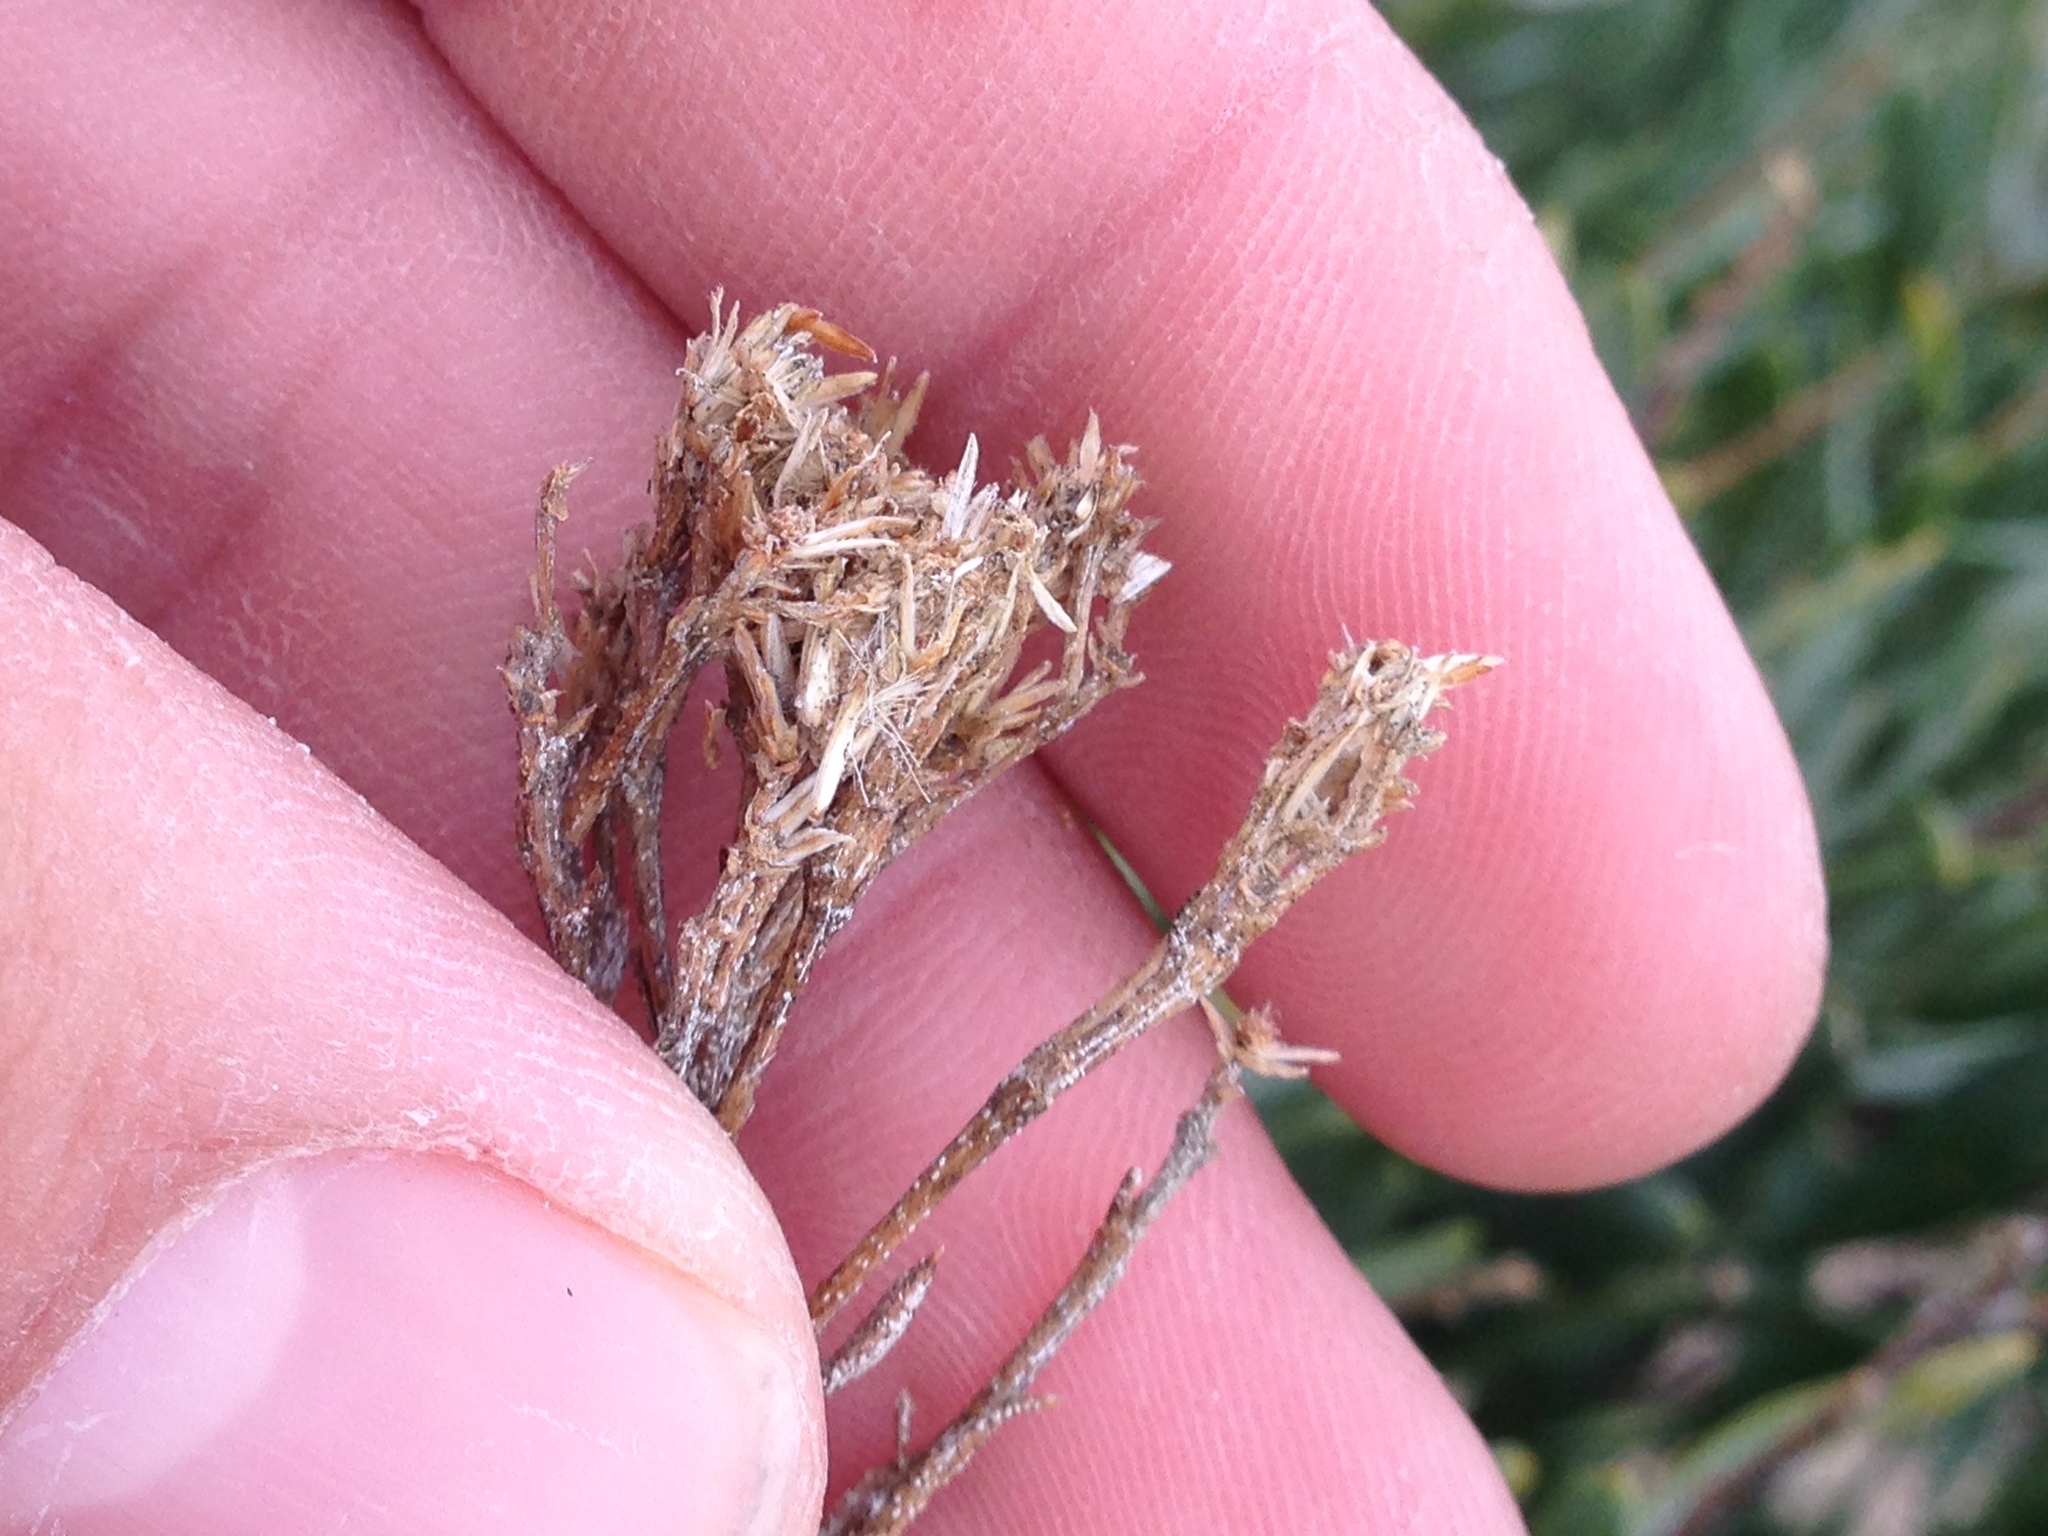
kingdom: Plantae
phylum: Tracheophyta
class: Magnoliopsida
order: Asterales
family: Asteraceae
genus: Ericameria
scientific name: Ericameria parishii
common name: Parish's goldenbush
